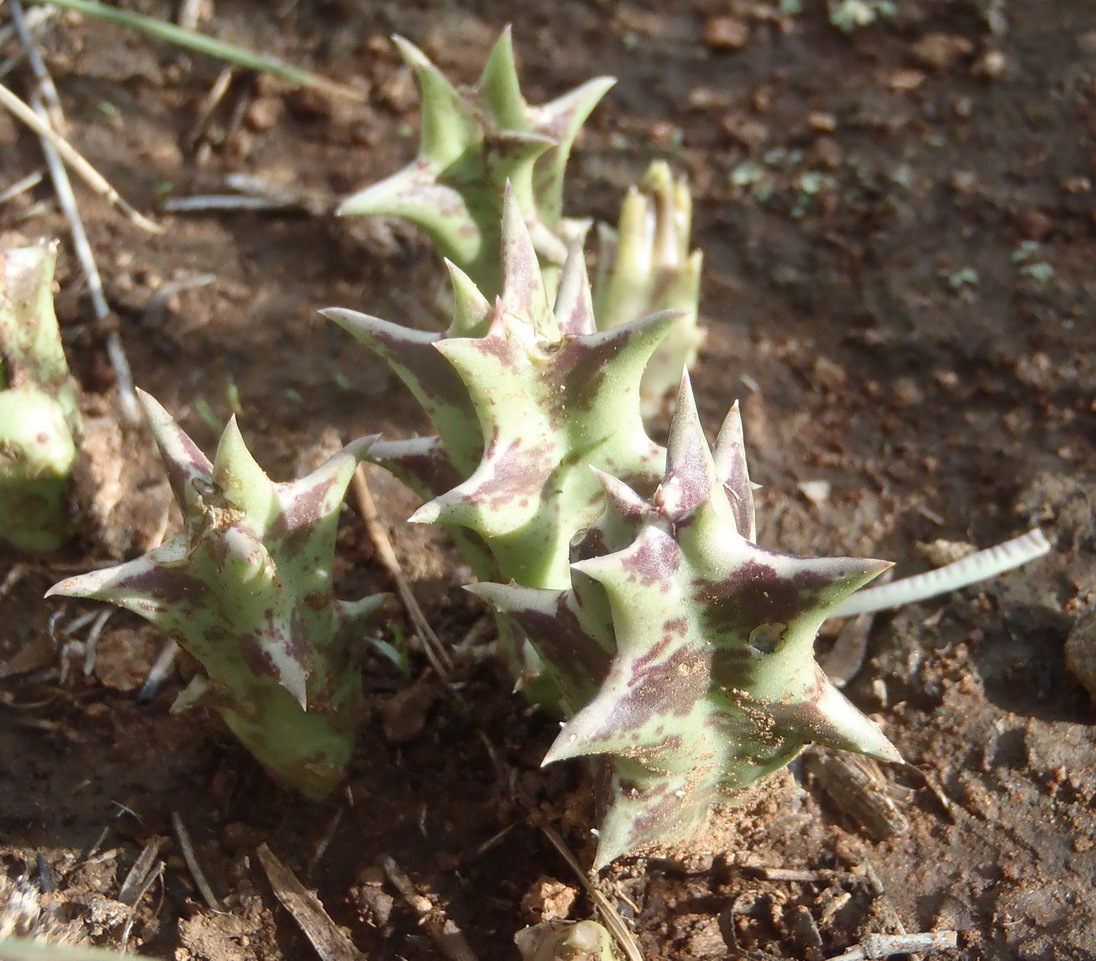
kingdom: Plantae
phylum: Tracheophyta
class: Magnoliopsida
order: Gentianales
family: Apocynaceae
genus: Ceropegia
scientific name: Ceropegia lutea
